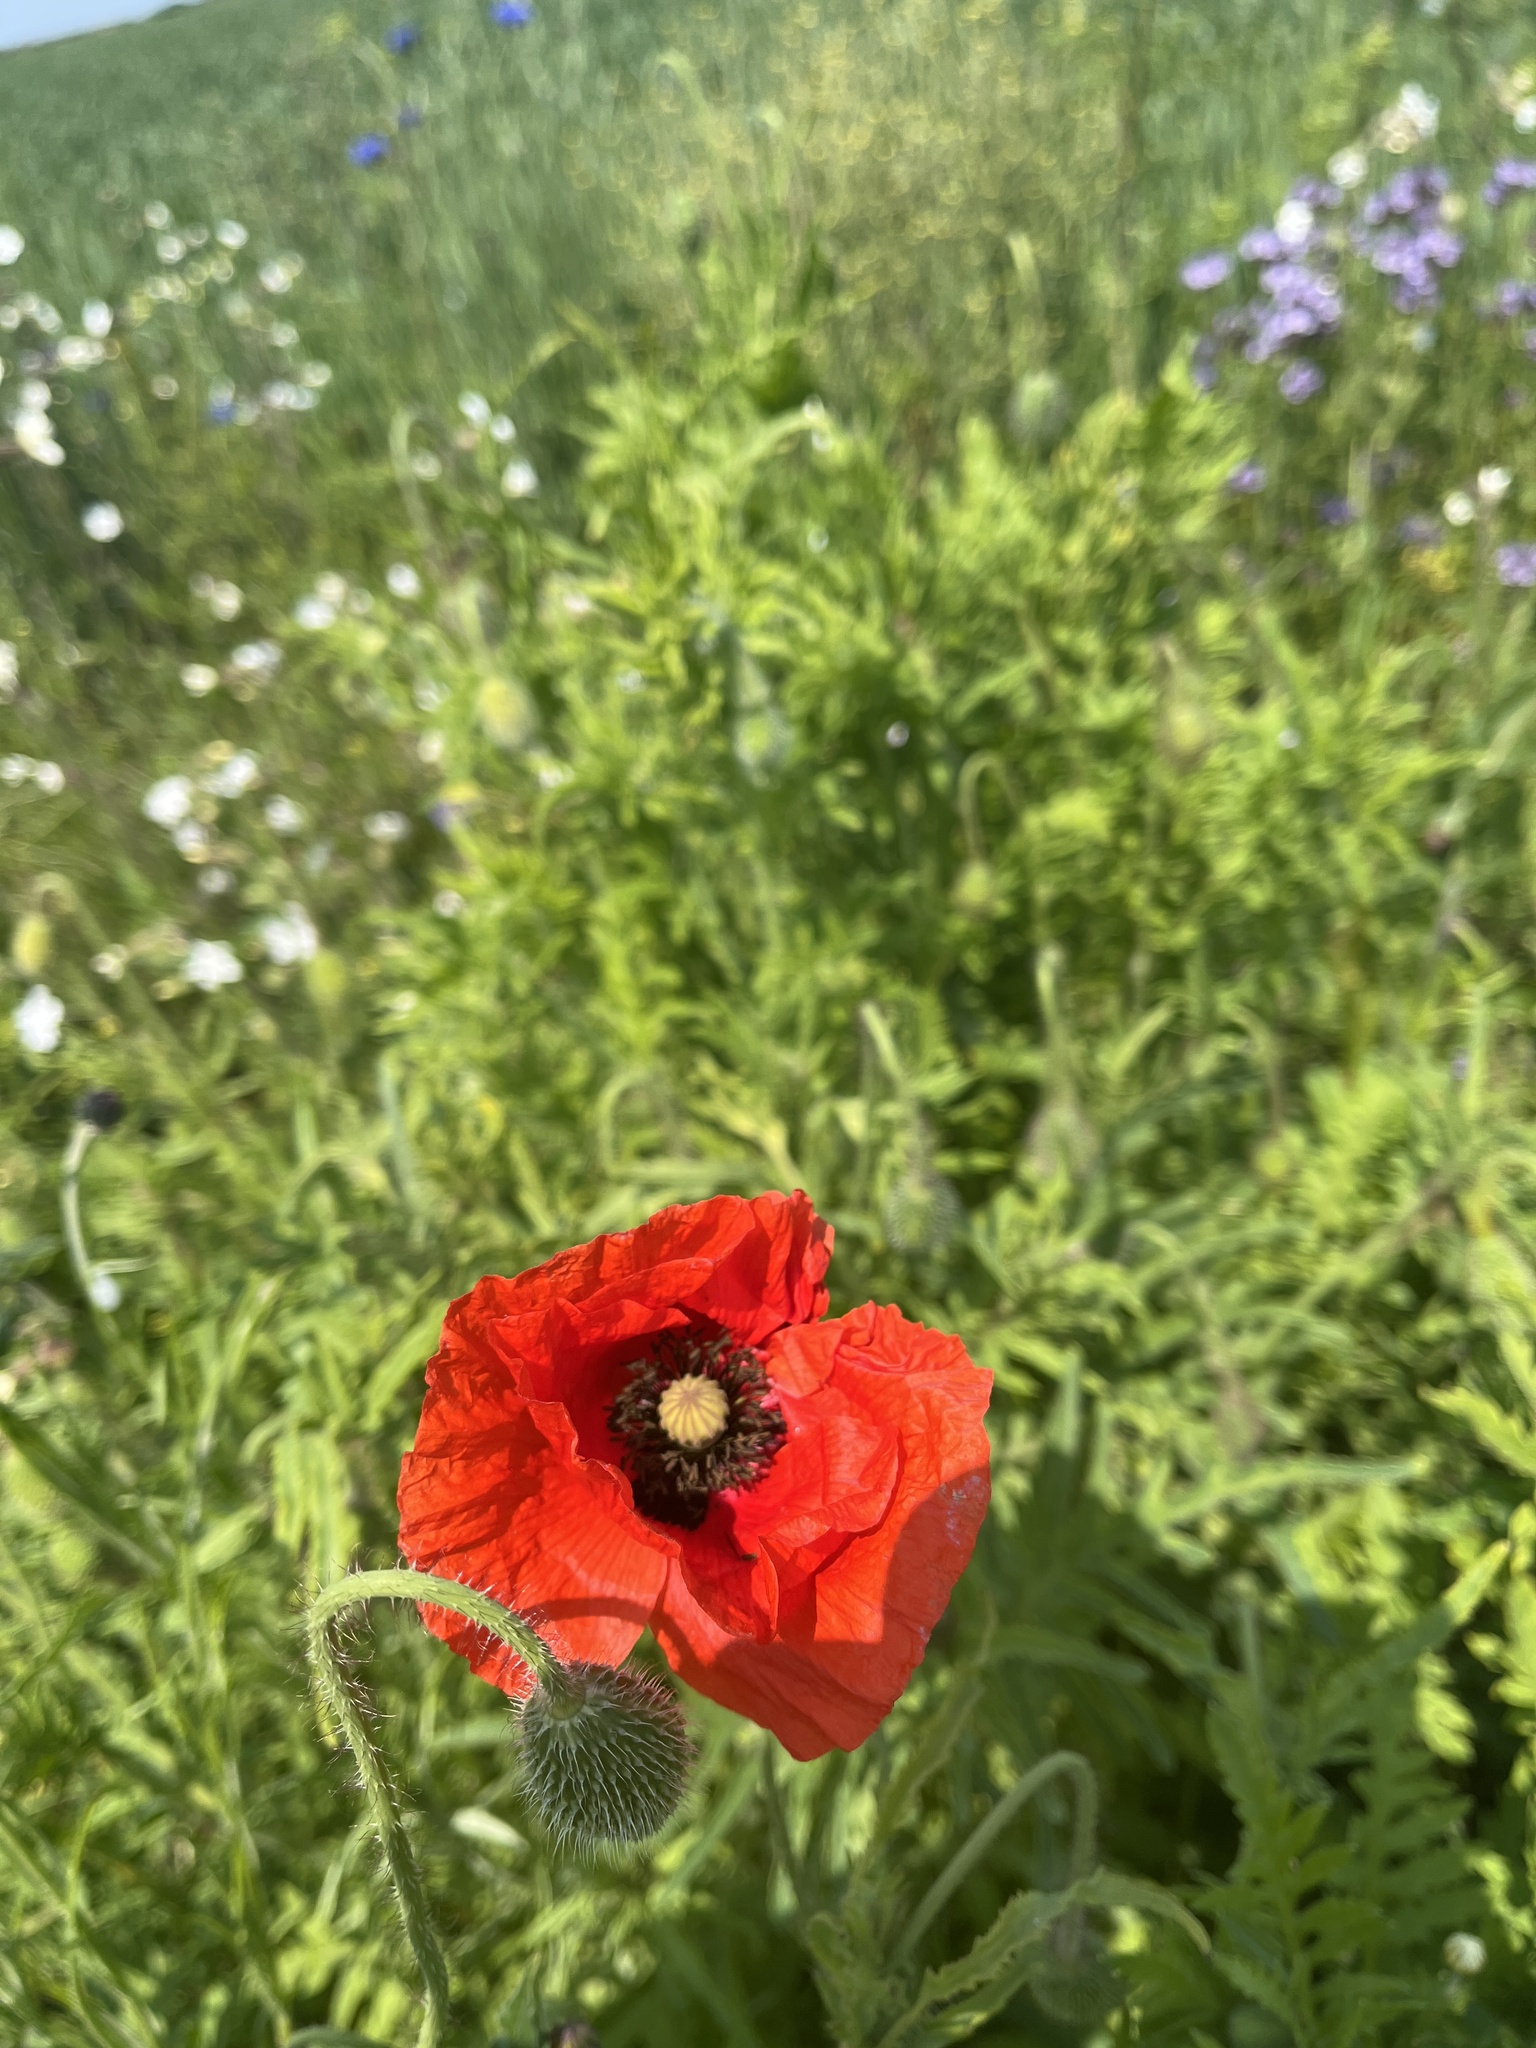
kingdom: Plantae
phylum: Tracheophyta
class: Magnoliopsida
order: Ranunculales
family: Papaveraceae
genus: Papaver
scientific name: Papaver rhoeas
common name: Corn poppy
